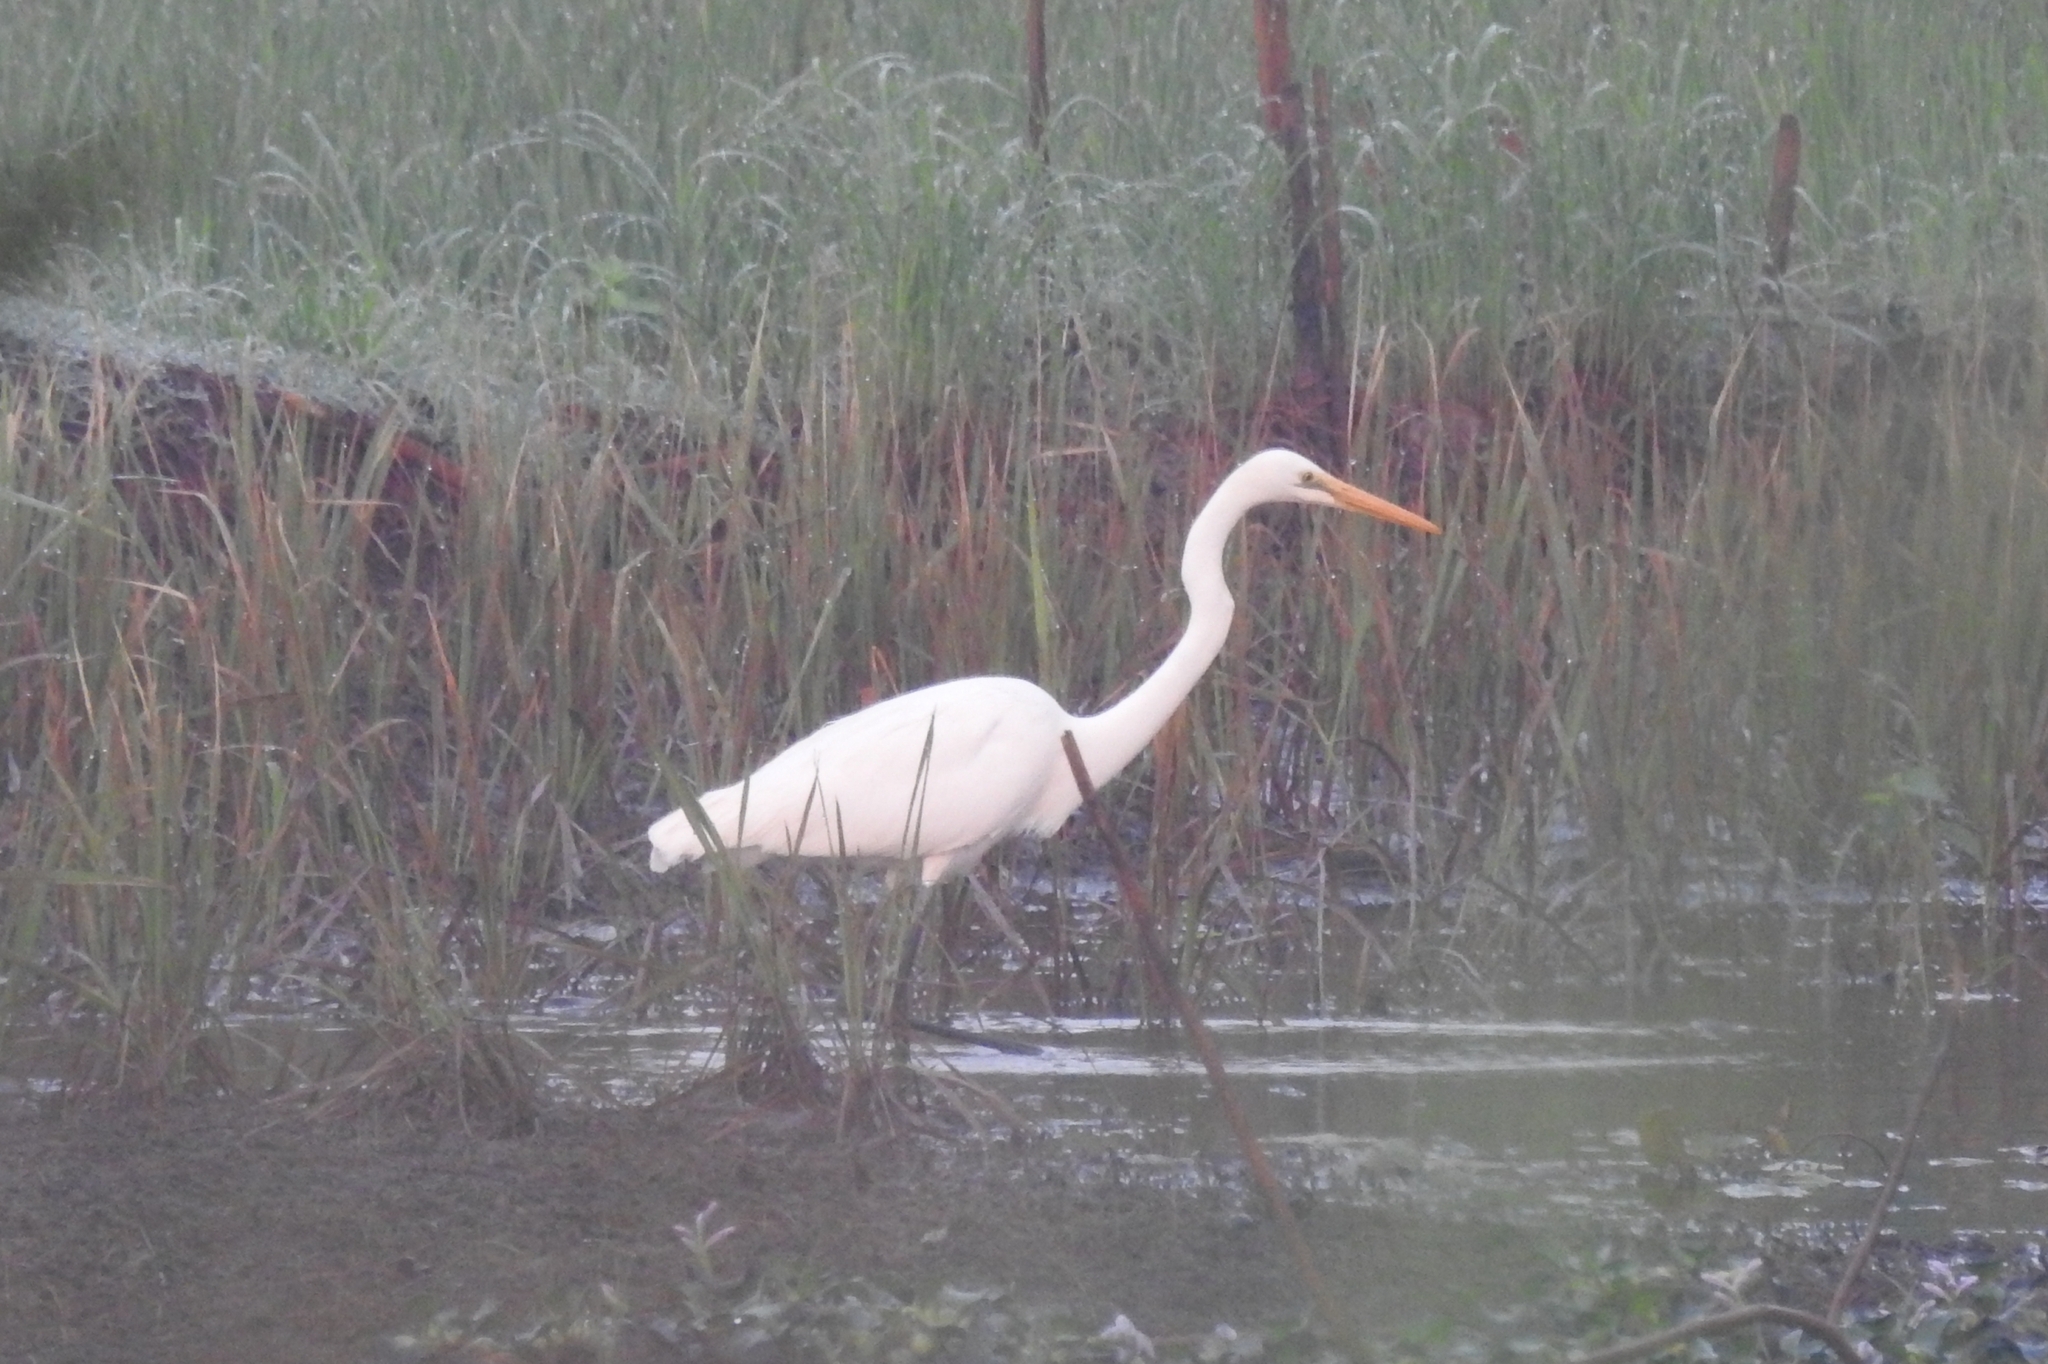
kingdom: Animalia
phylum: Chordata
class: Aves
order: Pelecaniformes
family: Ardeidae
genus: Ardea
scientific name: Ardea alba
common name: Great egret
